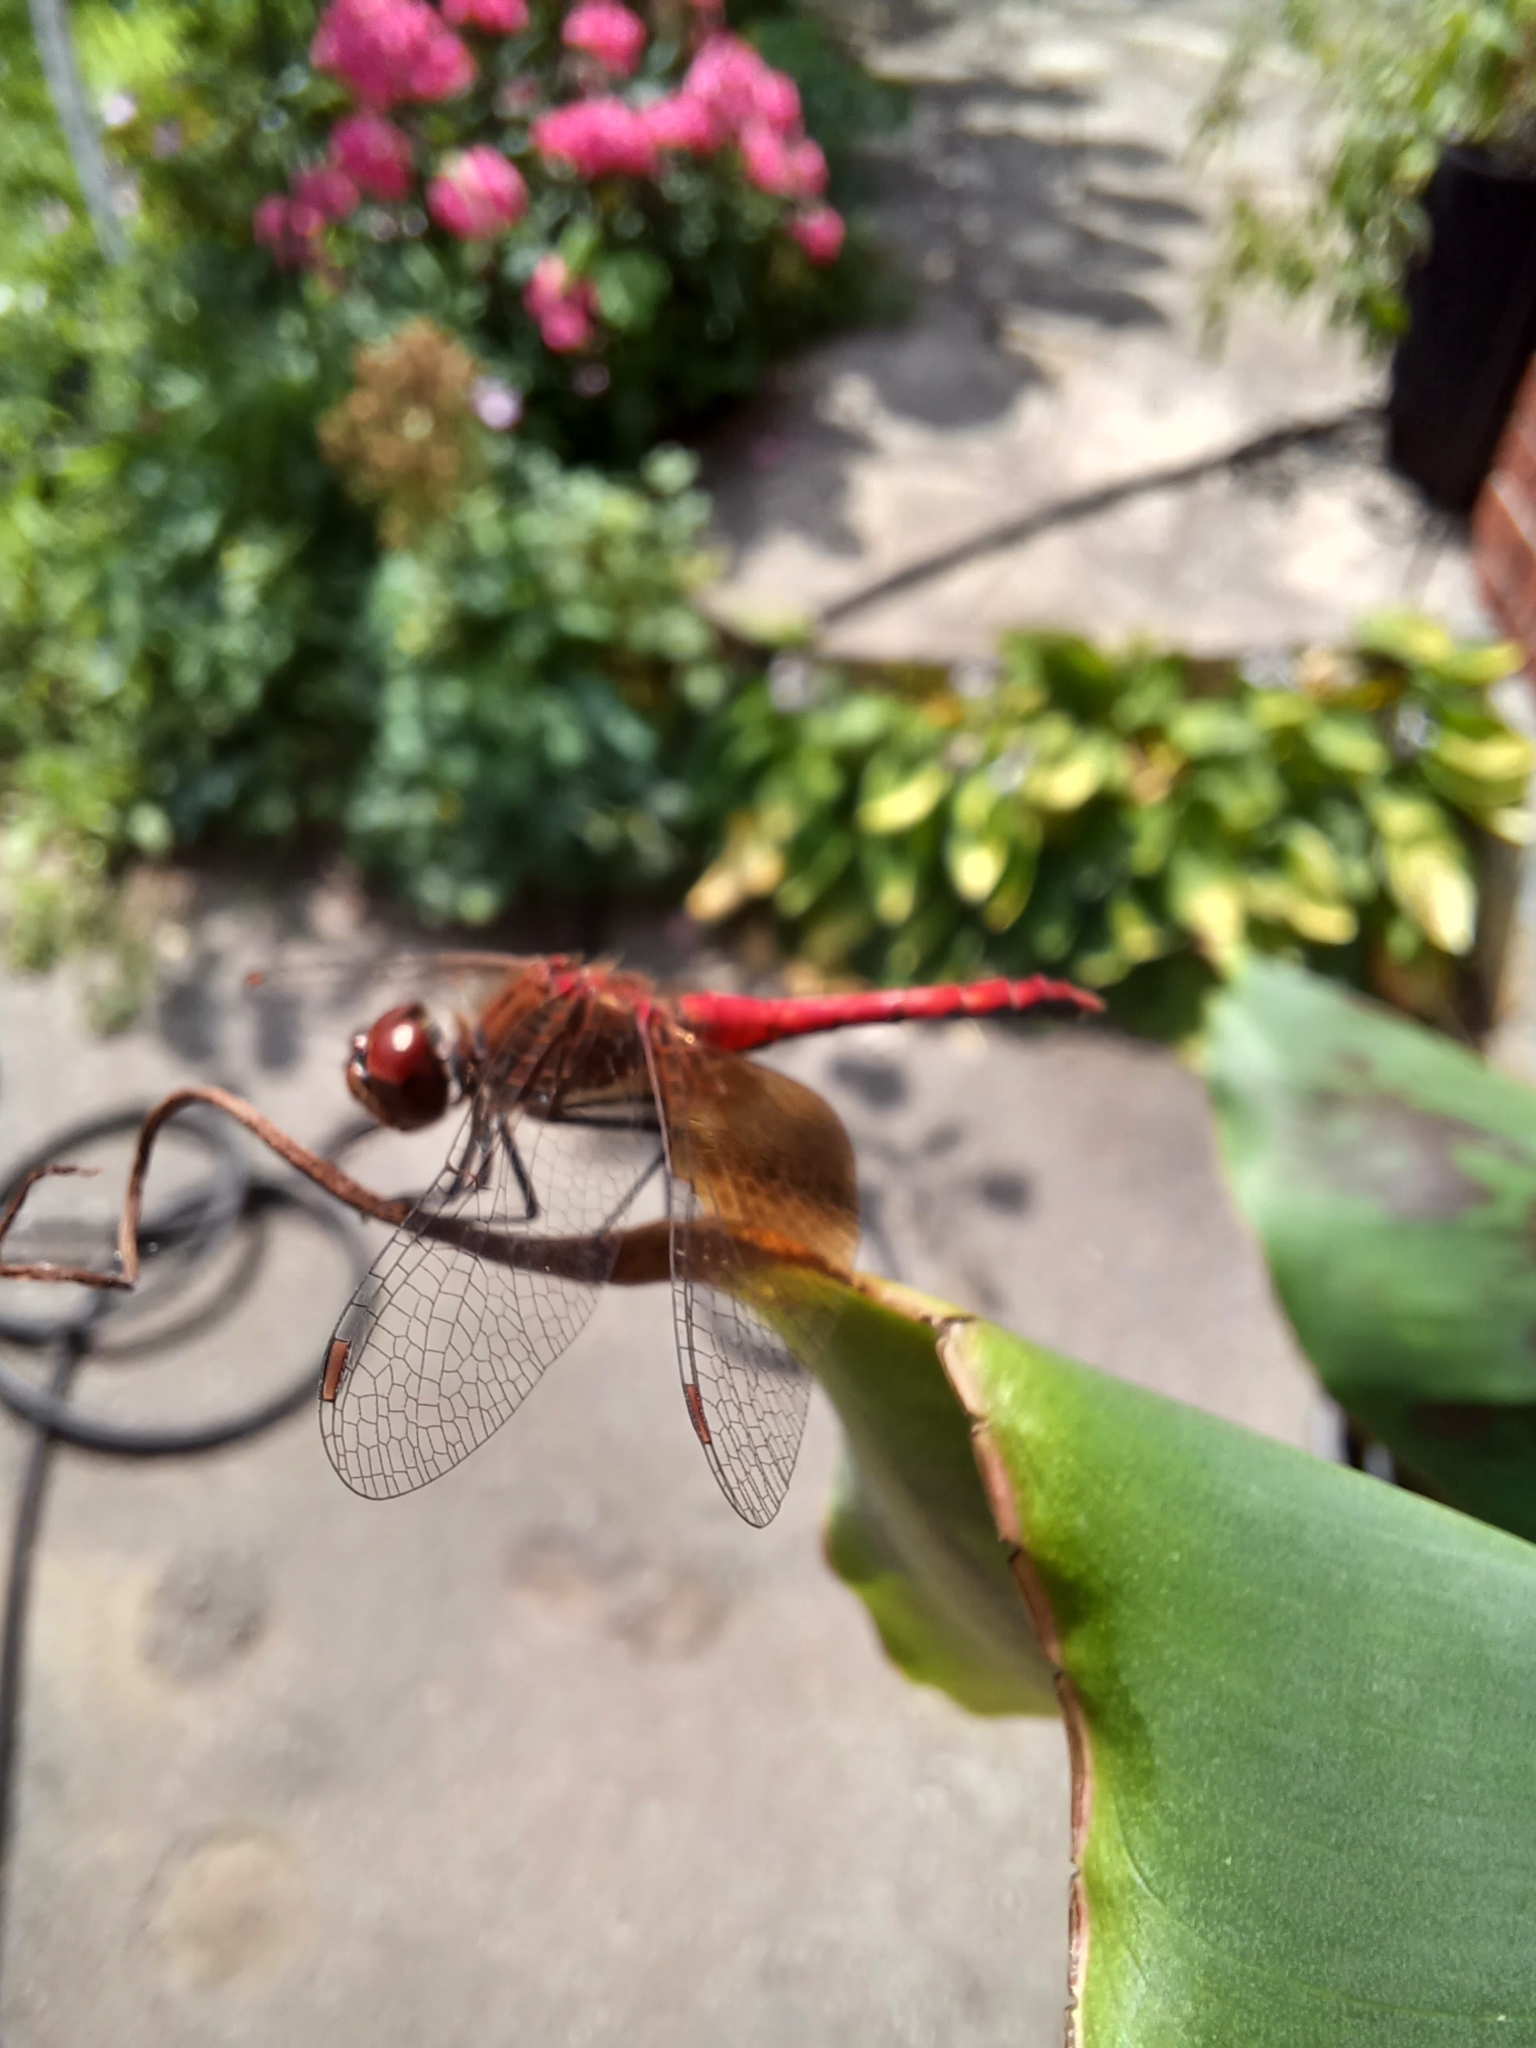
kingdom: Animalia
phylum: Arthropoda
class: Insecta
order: Odonata
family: Libellulidae
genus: Sympetrum
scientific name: Sympetrum semicinctum
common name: Band-winged meadowhawk
